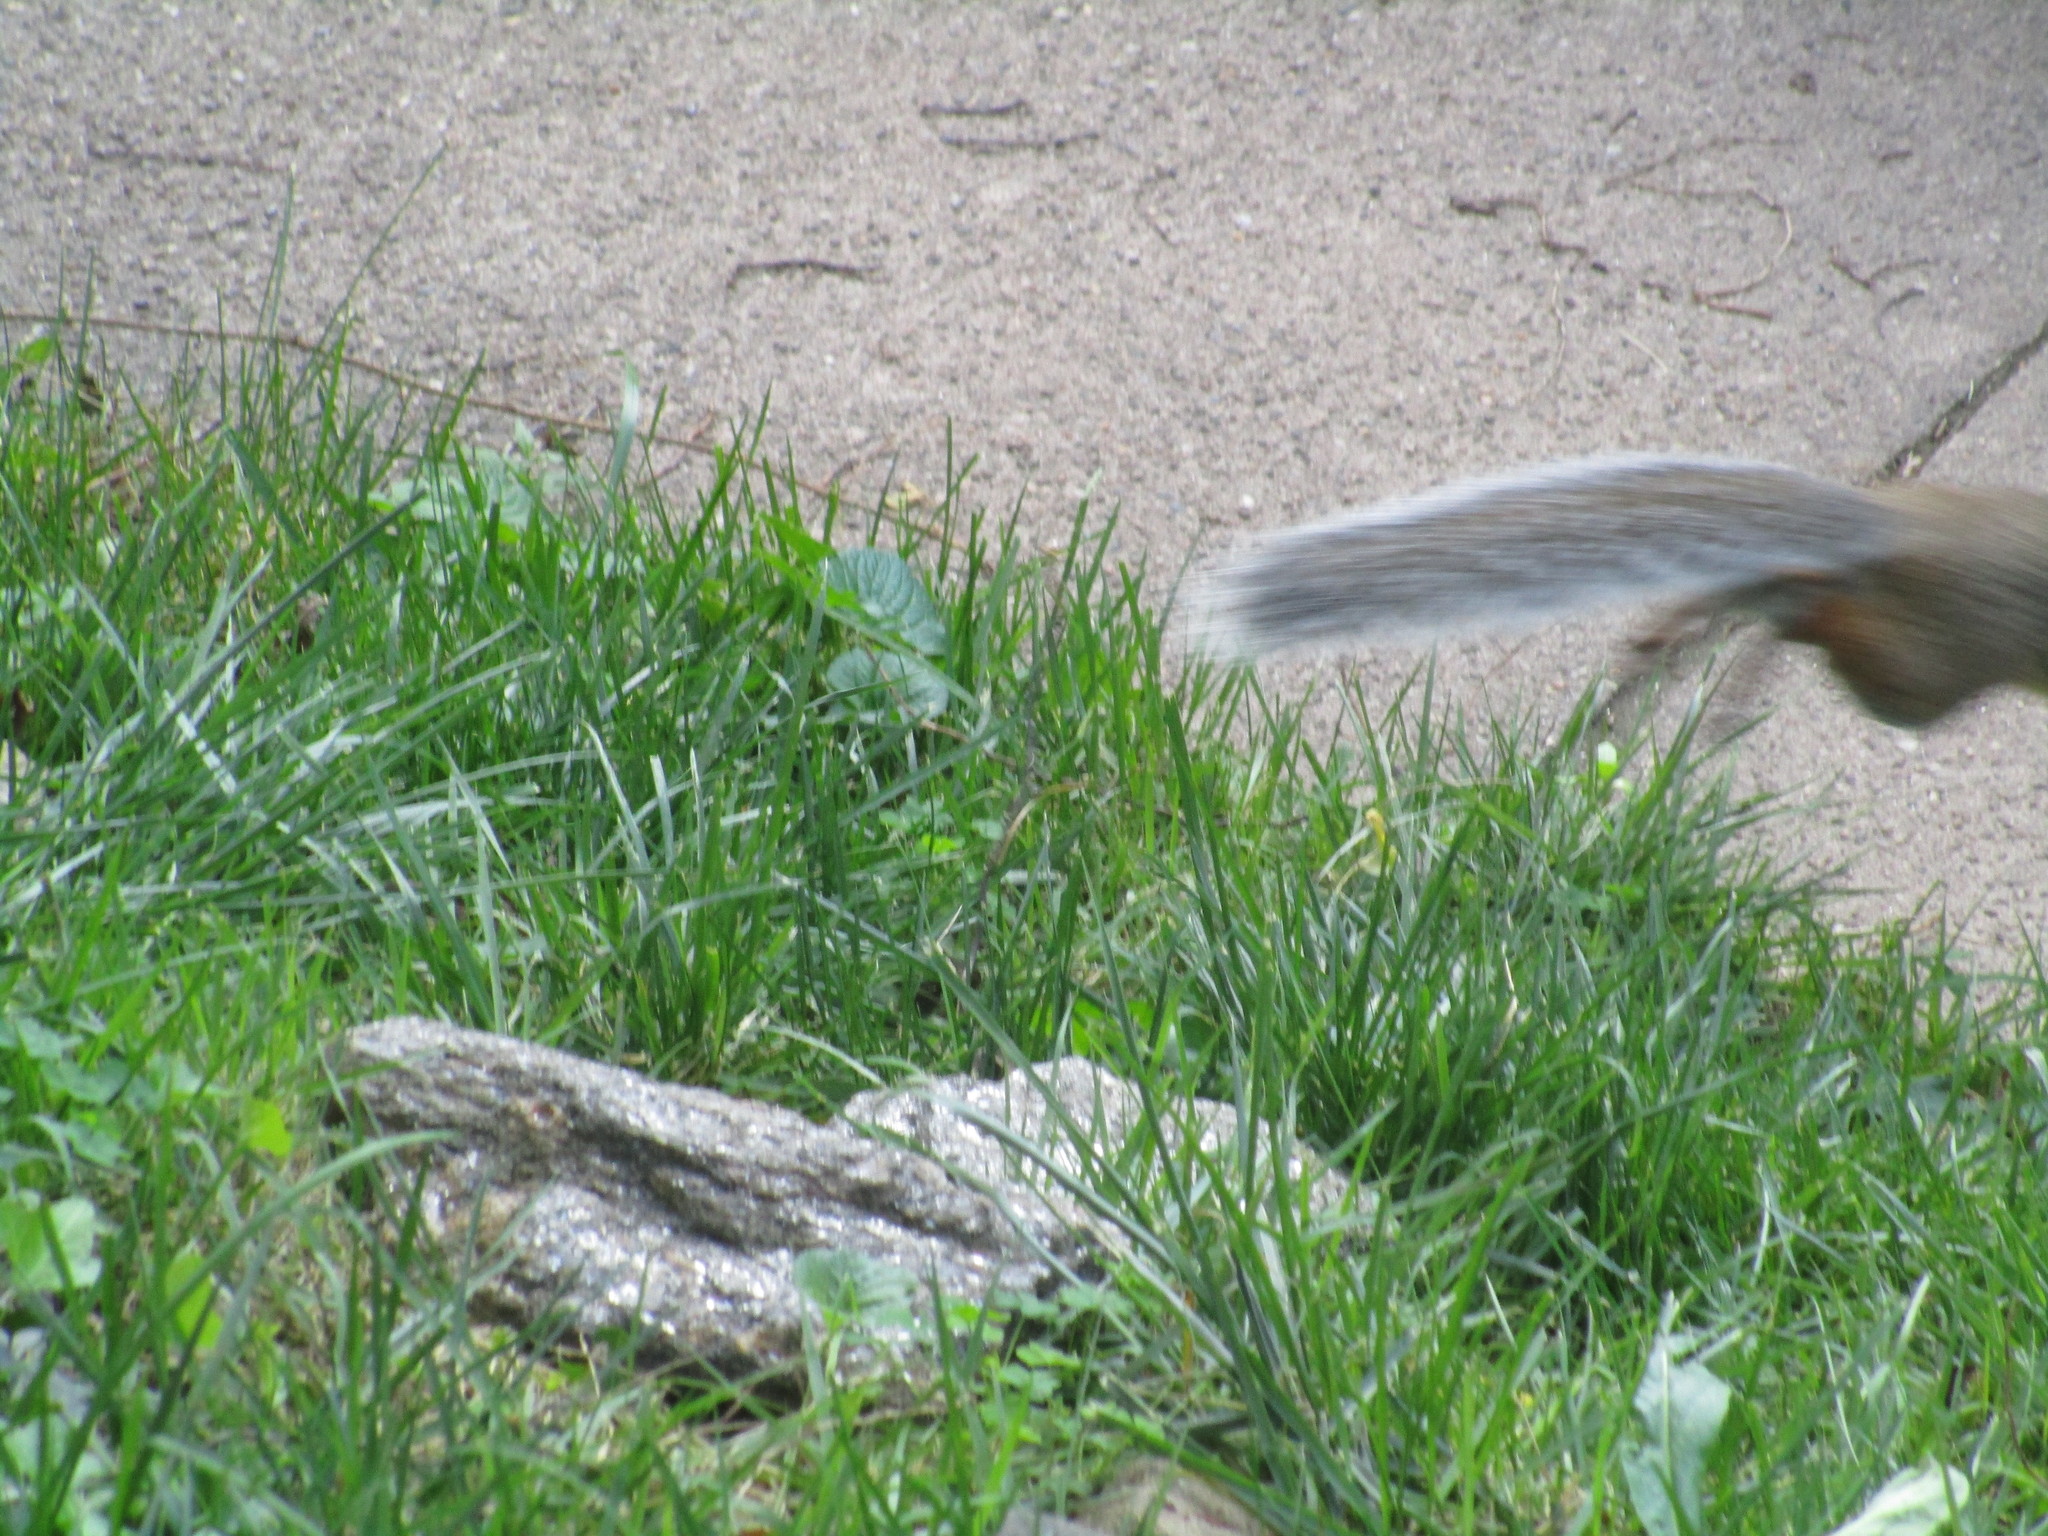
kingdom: Animalia
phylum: Chordata
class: Mammalia
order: Rodentia
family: Sciuridae
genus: Sciurus
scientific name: Sciurus carolinensis
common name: Eastern gray squirrel
